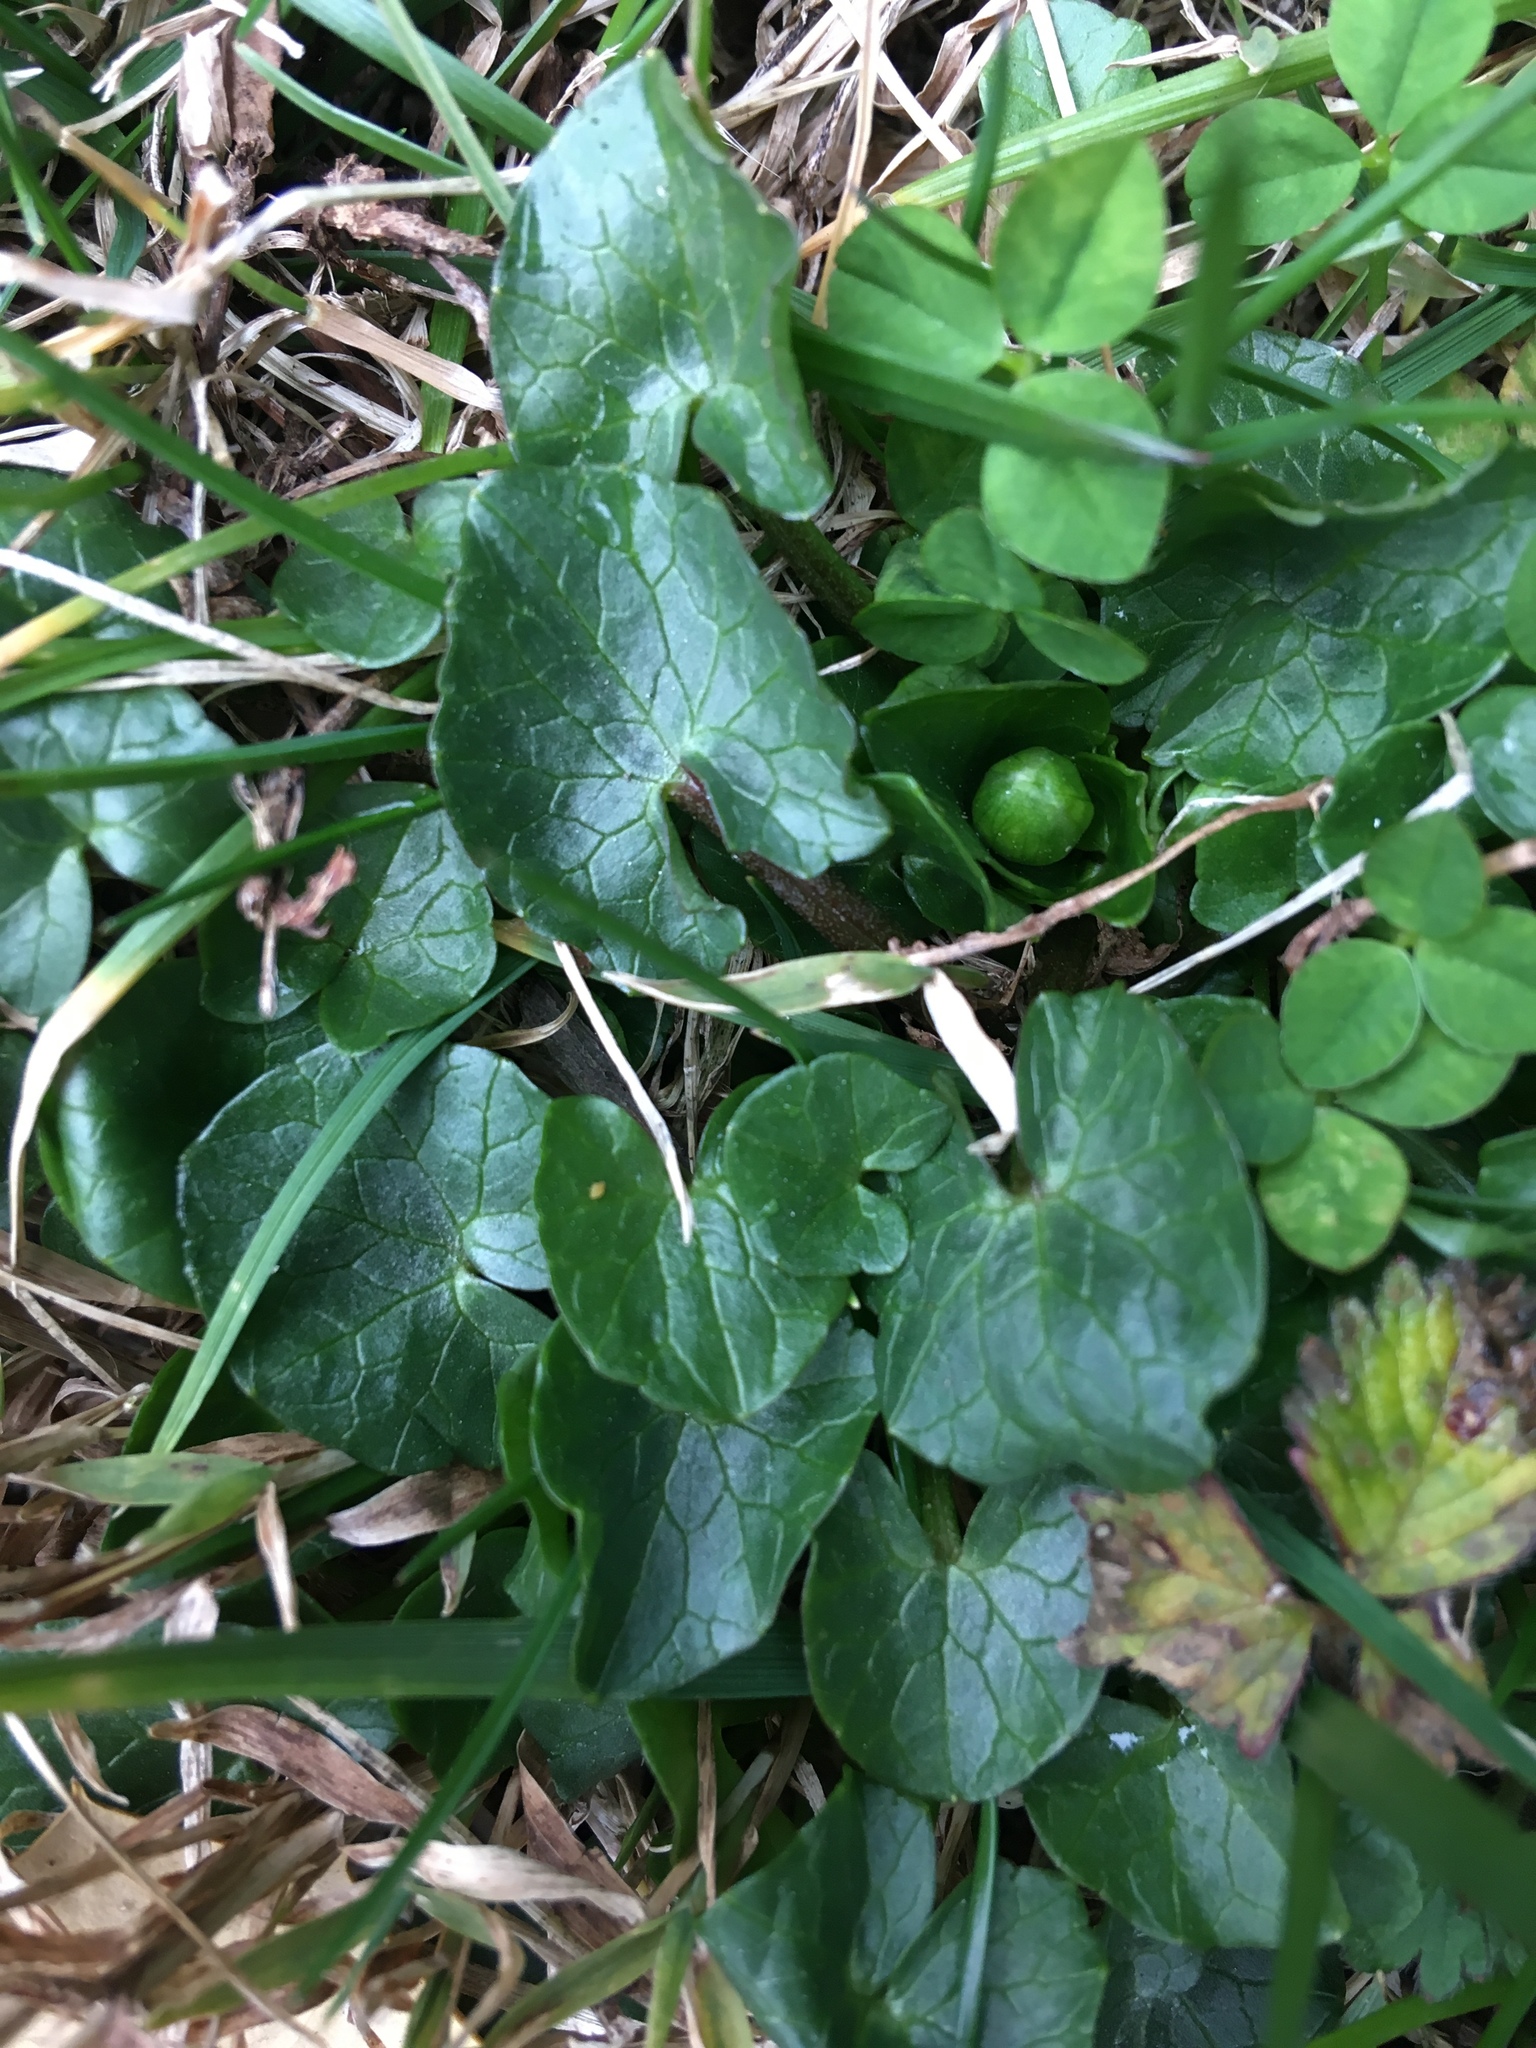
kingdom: Plantae
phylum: Tracheophyta
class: Magnoliopsida
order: Ranunculales
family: Ranunculaceae
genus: Ficaria
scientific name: Ficaria verna
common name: Lesser celandine
